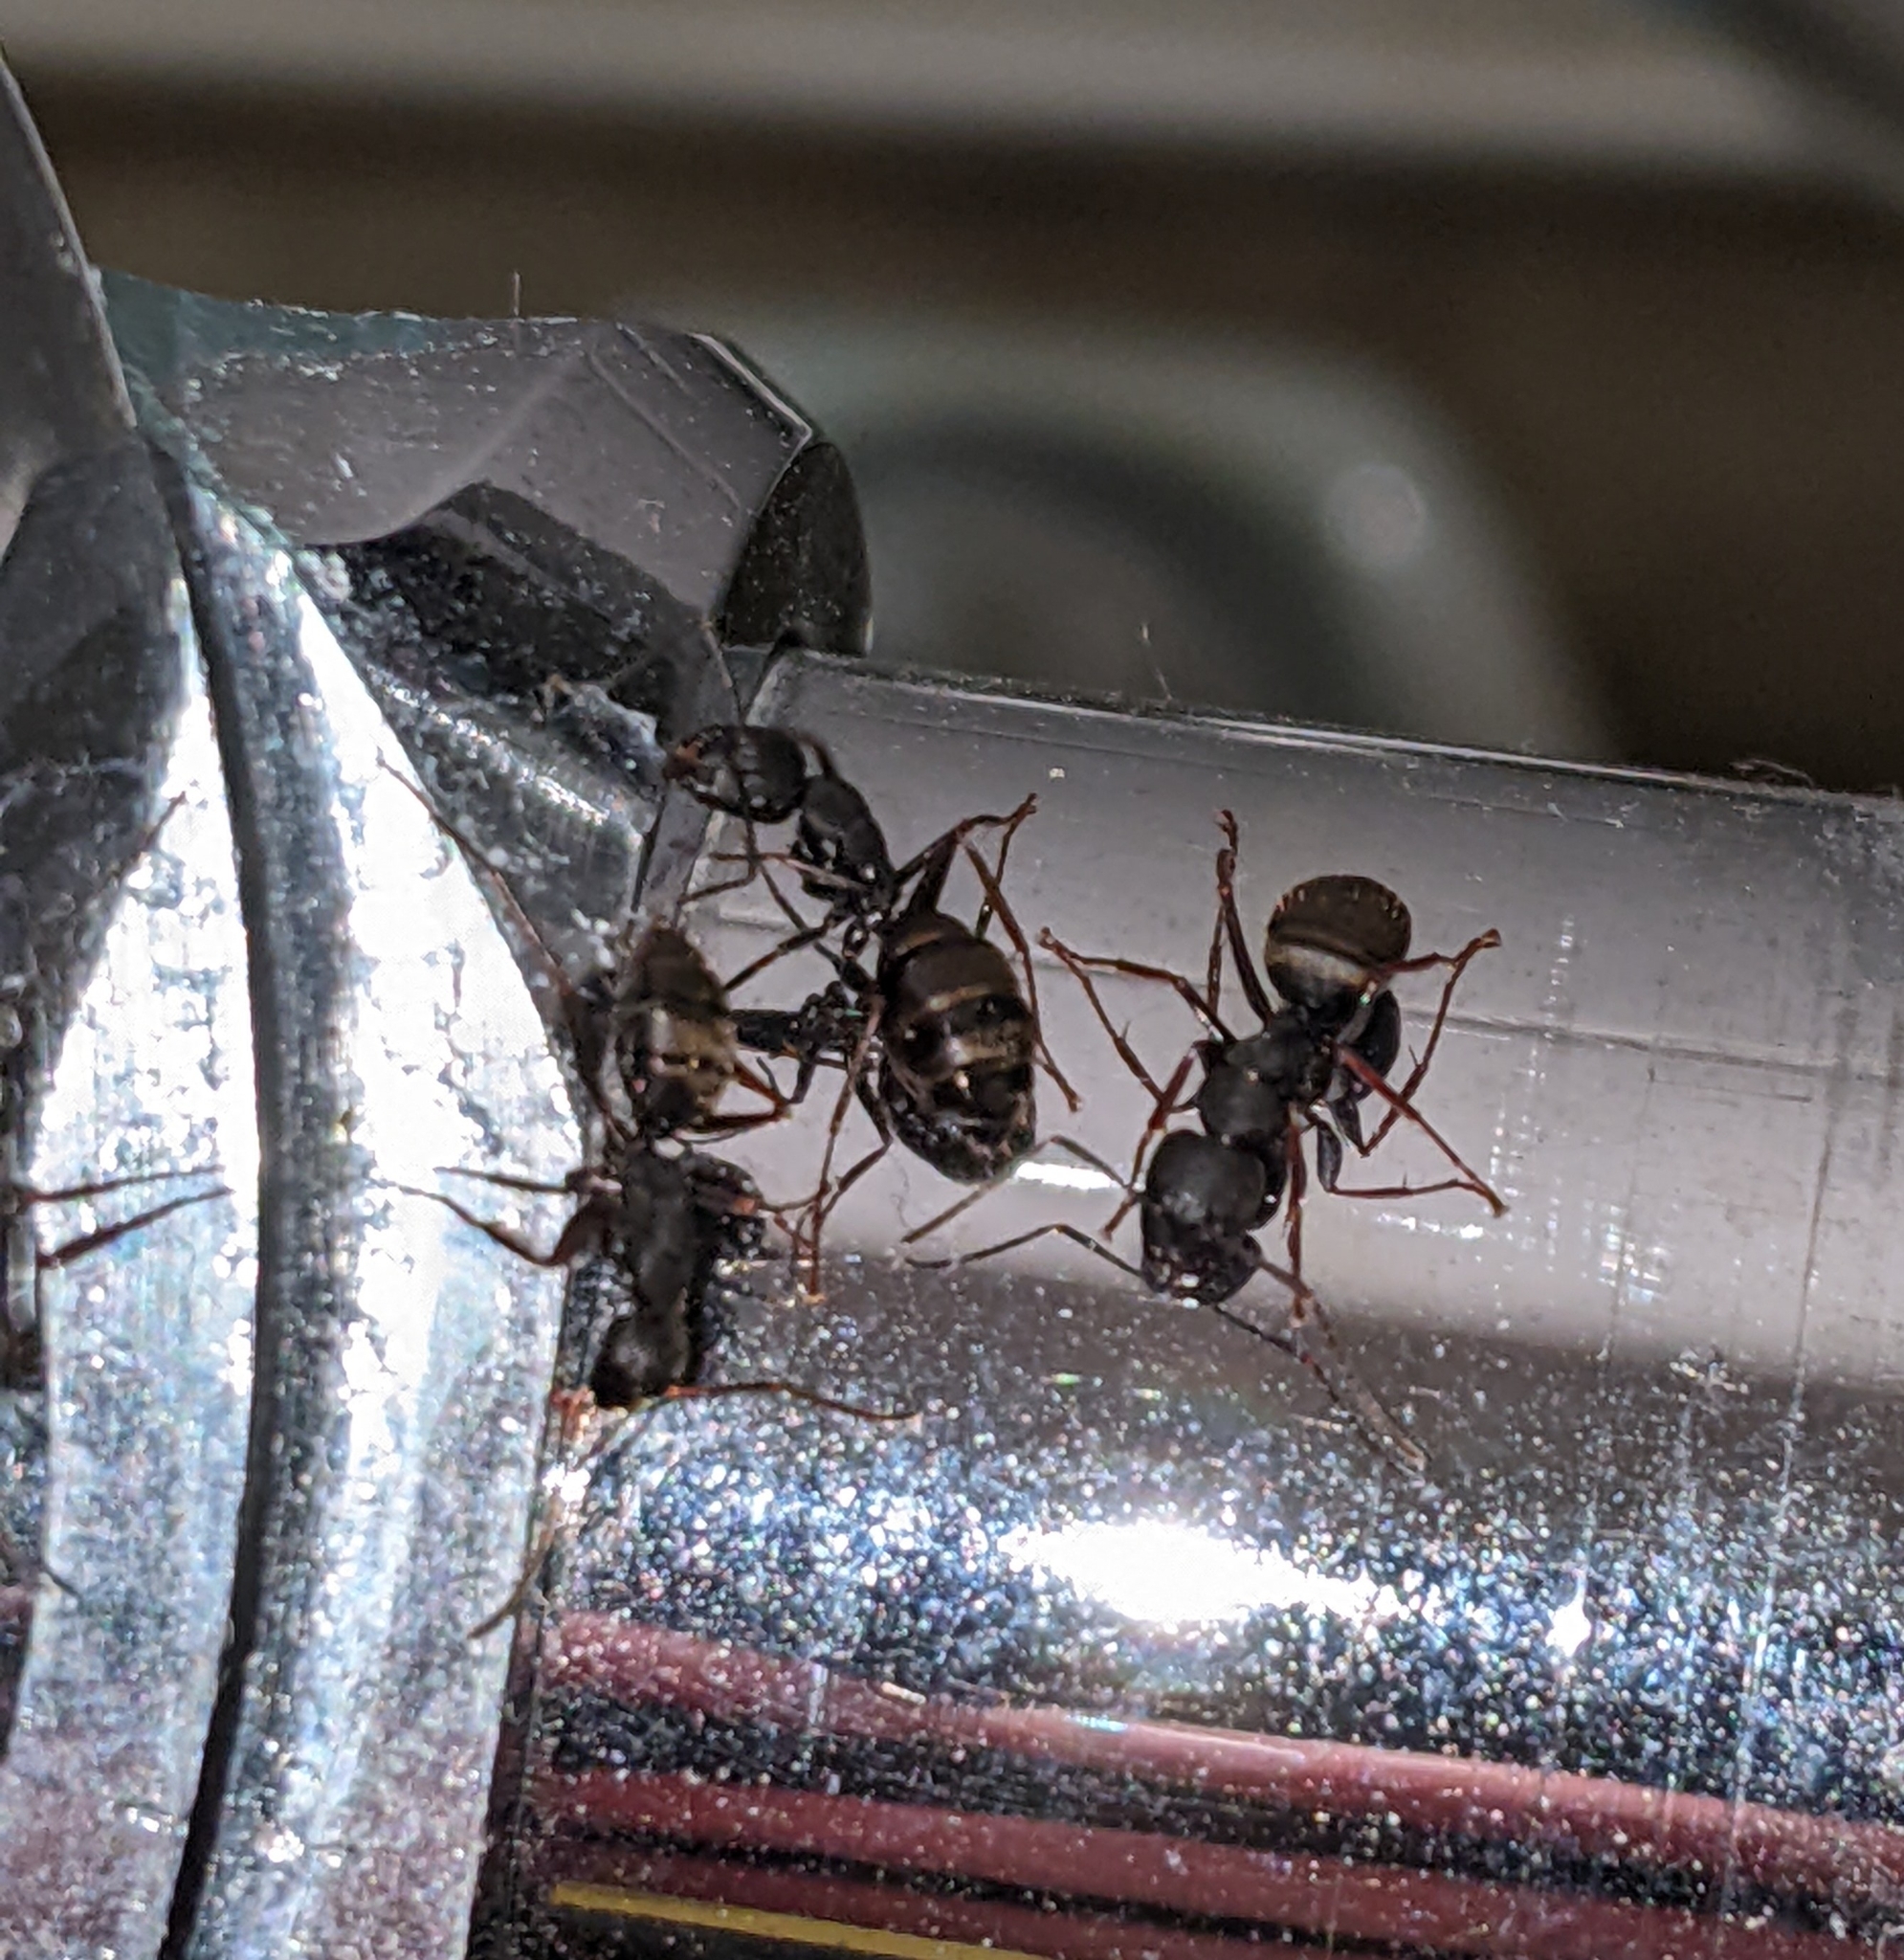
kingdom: Animalia
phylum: Arthropoda
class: Insecta
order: Hymenoptera
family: Formicidae
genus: Camponotus
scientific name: Camponotus modoc
